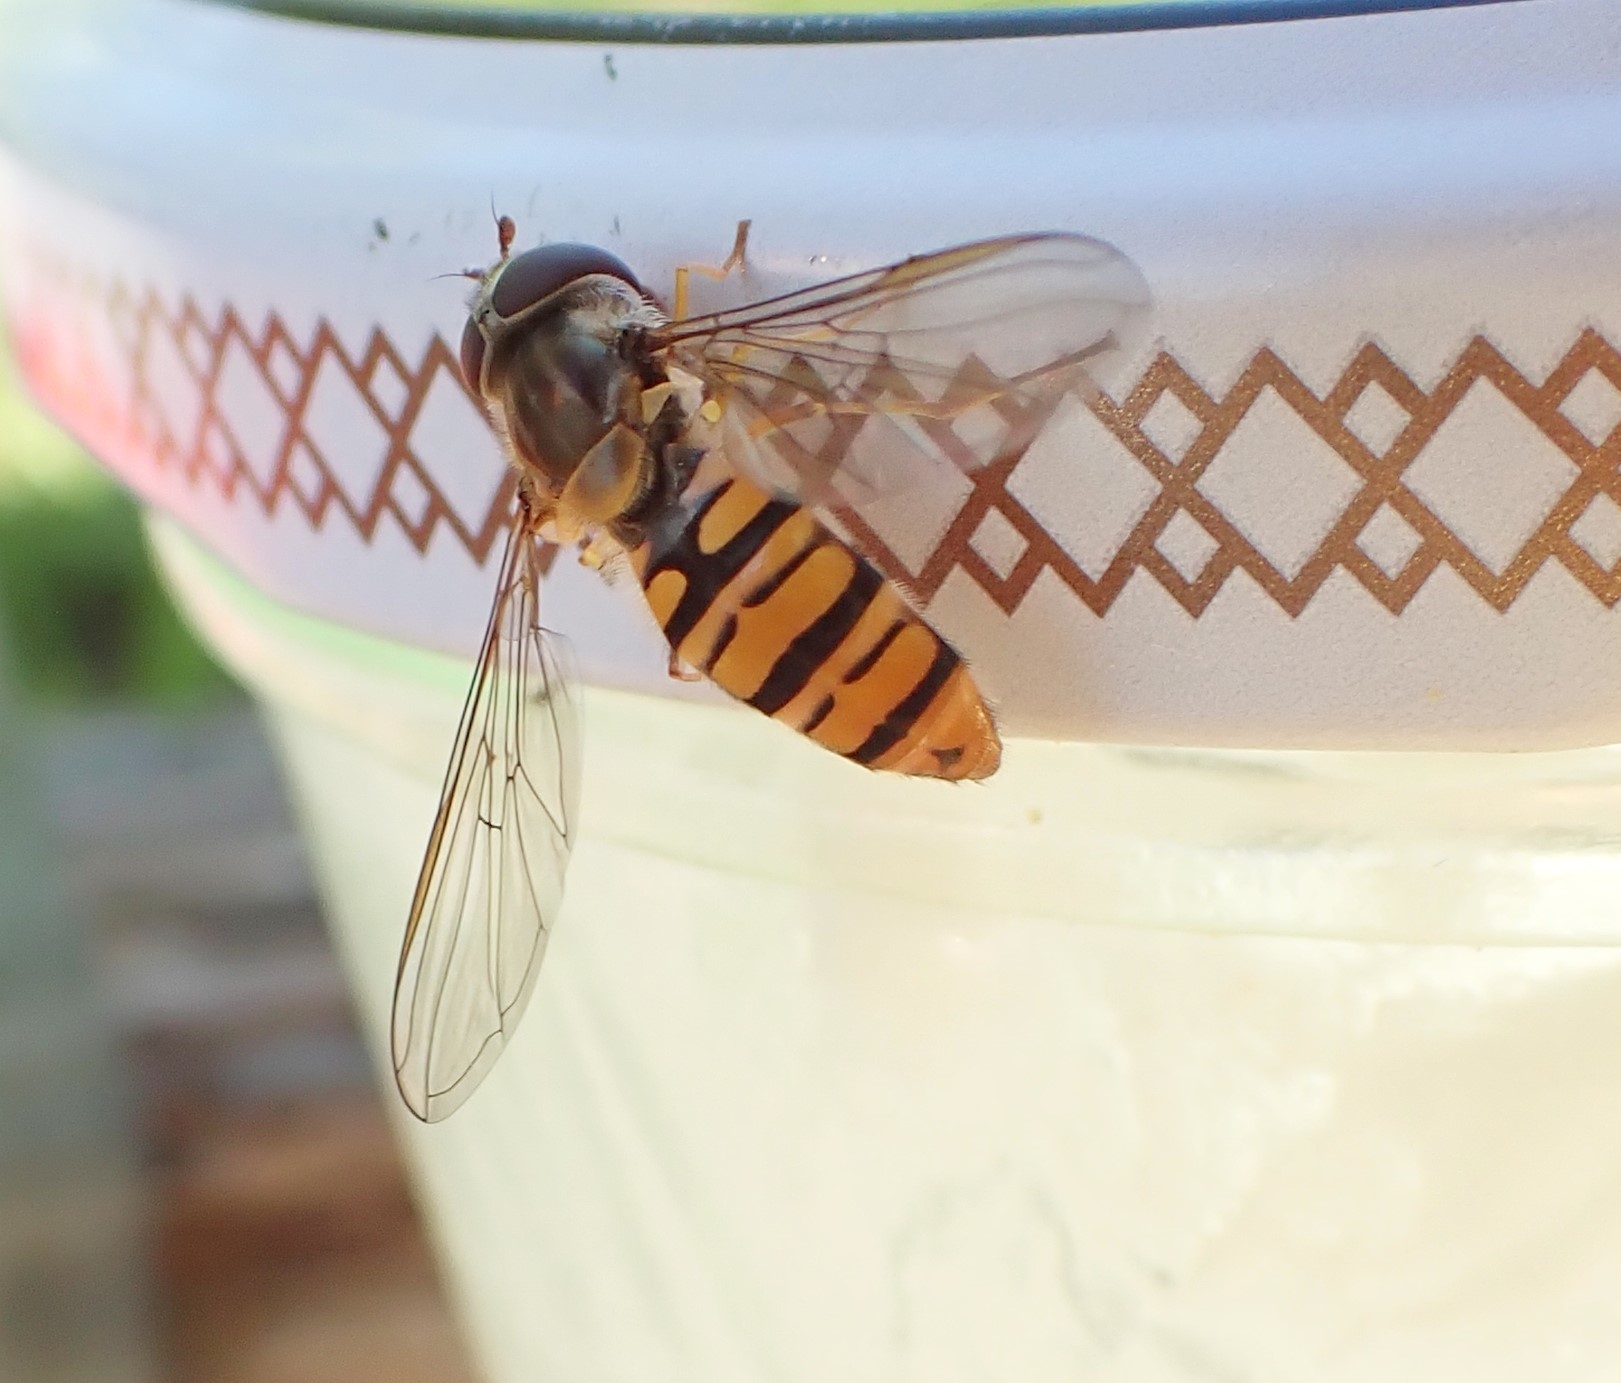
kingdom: Animalia
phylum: Arthropoda
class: Insecta
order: Diptera
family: Syrphidae
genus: Episyrphus
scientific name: Episyrphus balteatus
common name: Marmalade hoverfly
